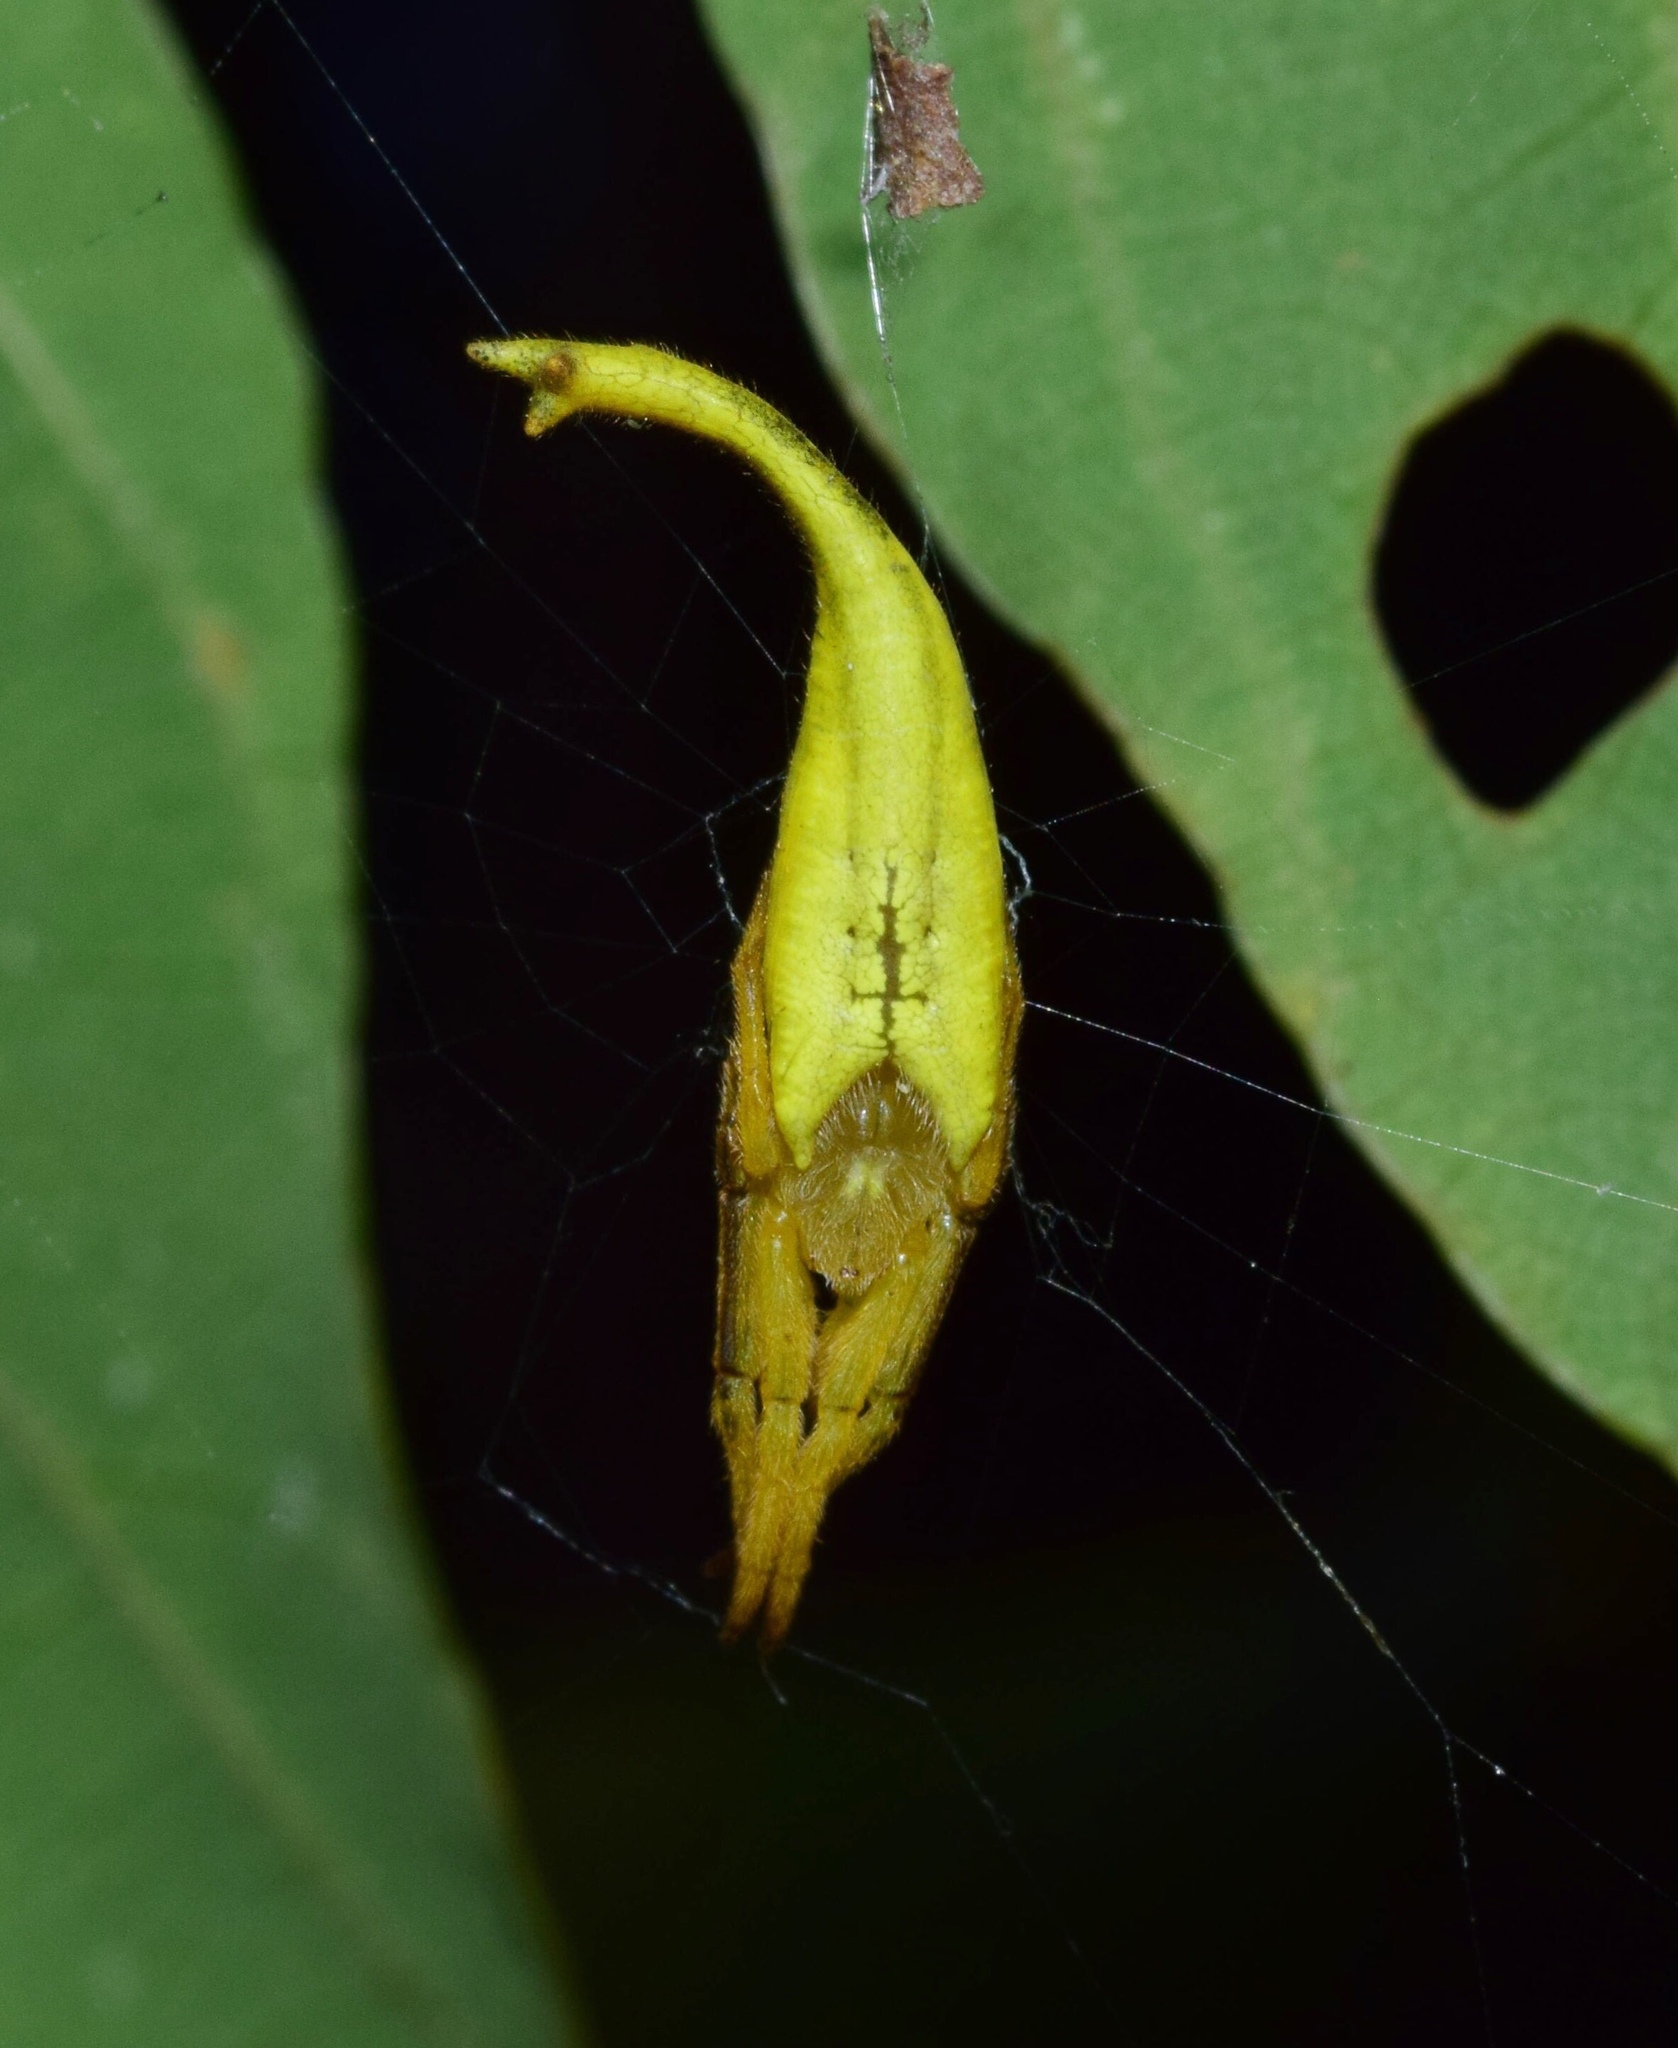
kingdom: Animalia
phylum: Arthropoda
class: Arachnida
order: Araneae
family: Araneidae
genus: Arachnura
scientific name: Arachnura scorpionoides
